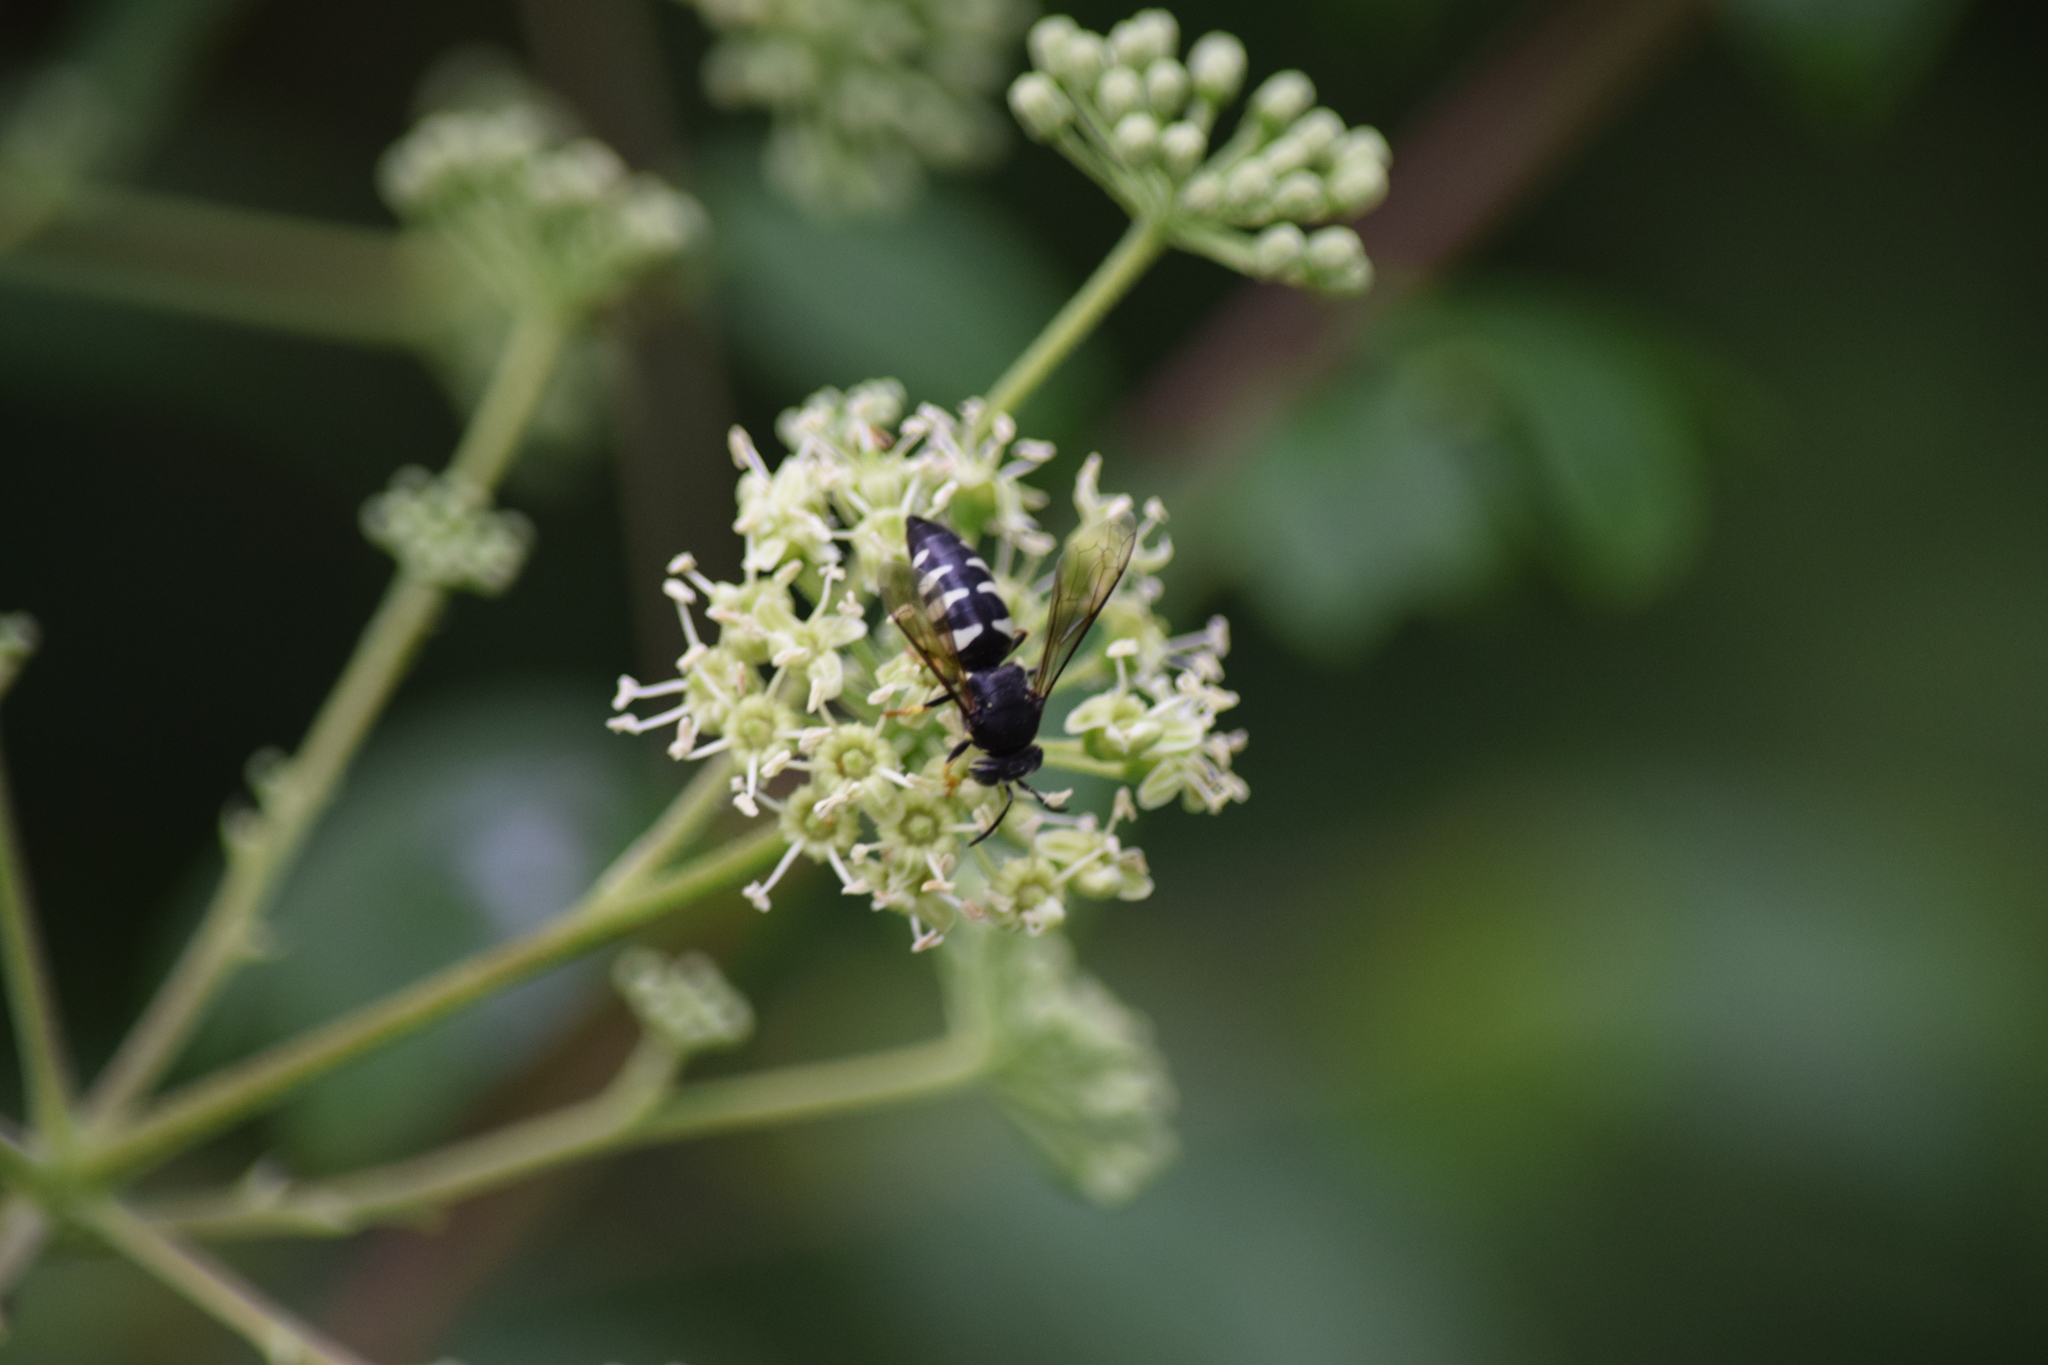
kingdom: Animalia
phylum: Arthropoda
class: Insecta
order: Hymenoptera
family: Crabronidae
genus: Bicyrtes
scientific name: Bicyrtes quadrifasciatus
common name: Four-banded stink bug hunter wasp
